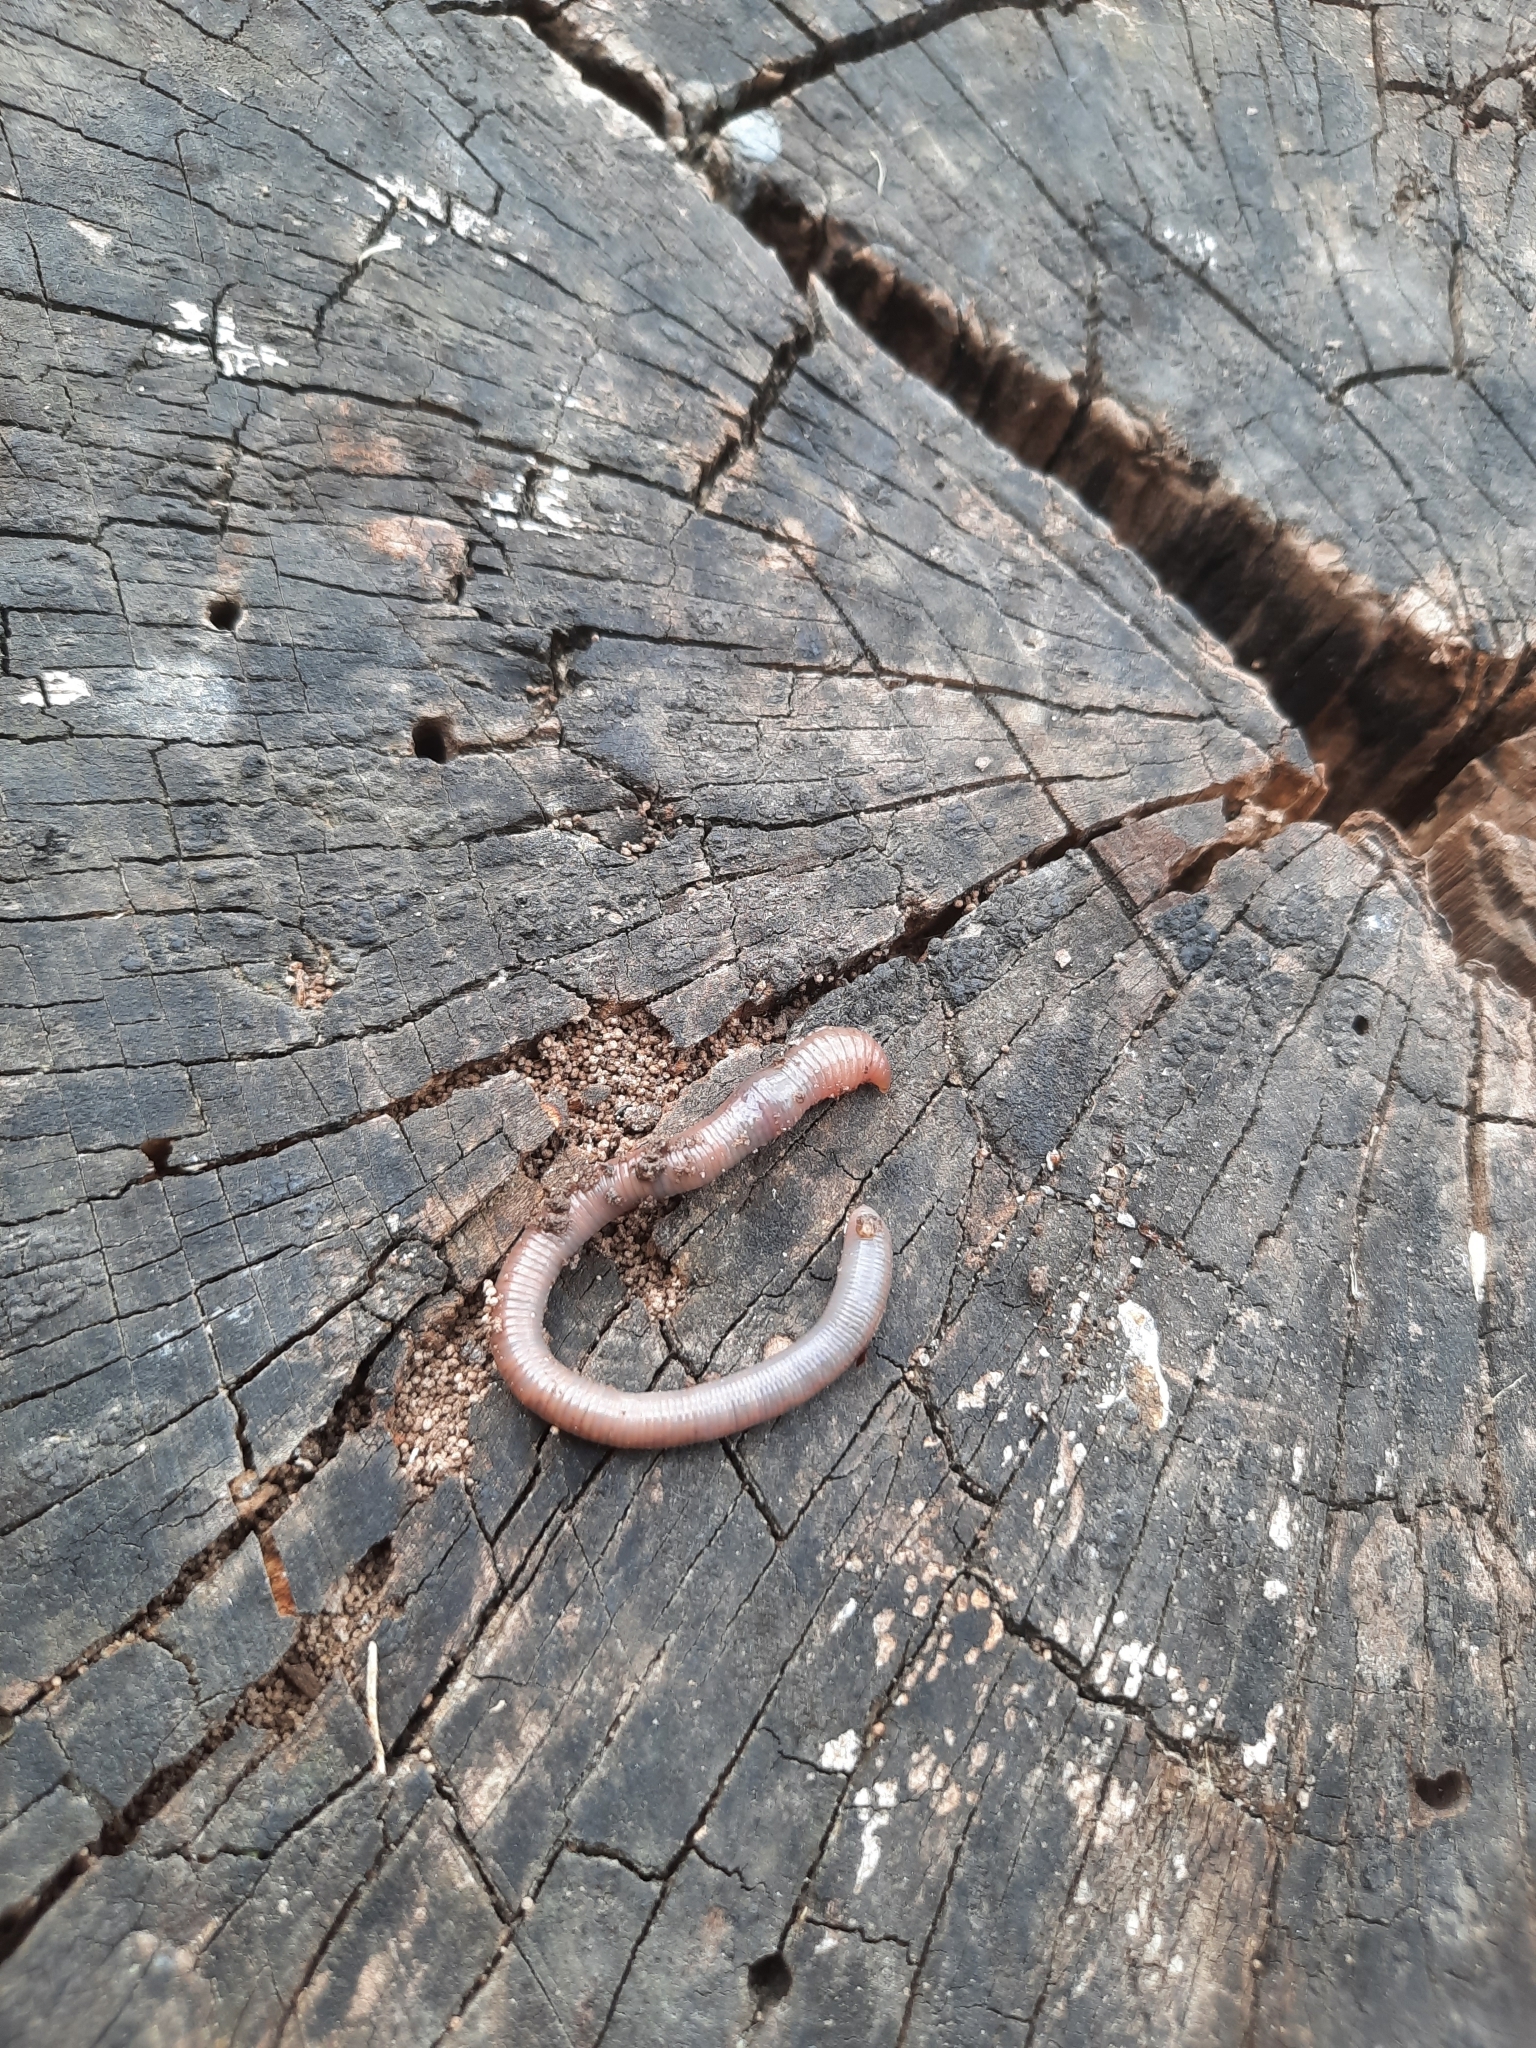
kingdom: Animalia
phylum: Annelida
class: Clitellata
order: Crassiclitellata
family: Lumbricidae
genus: Aporrectodea
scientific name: Aporrectodea caliginosa
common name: Grey worm
